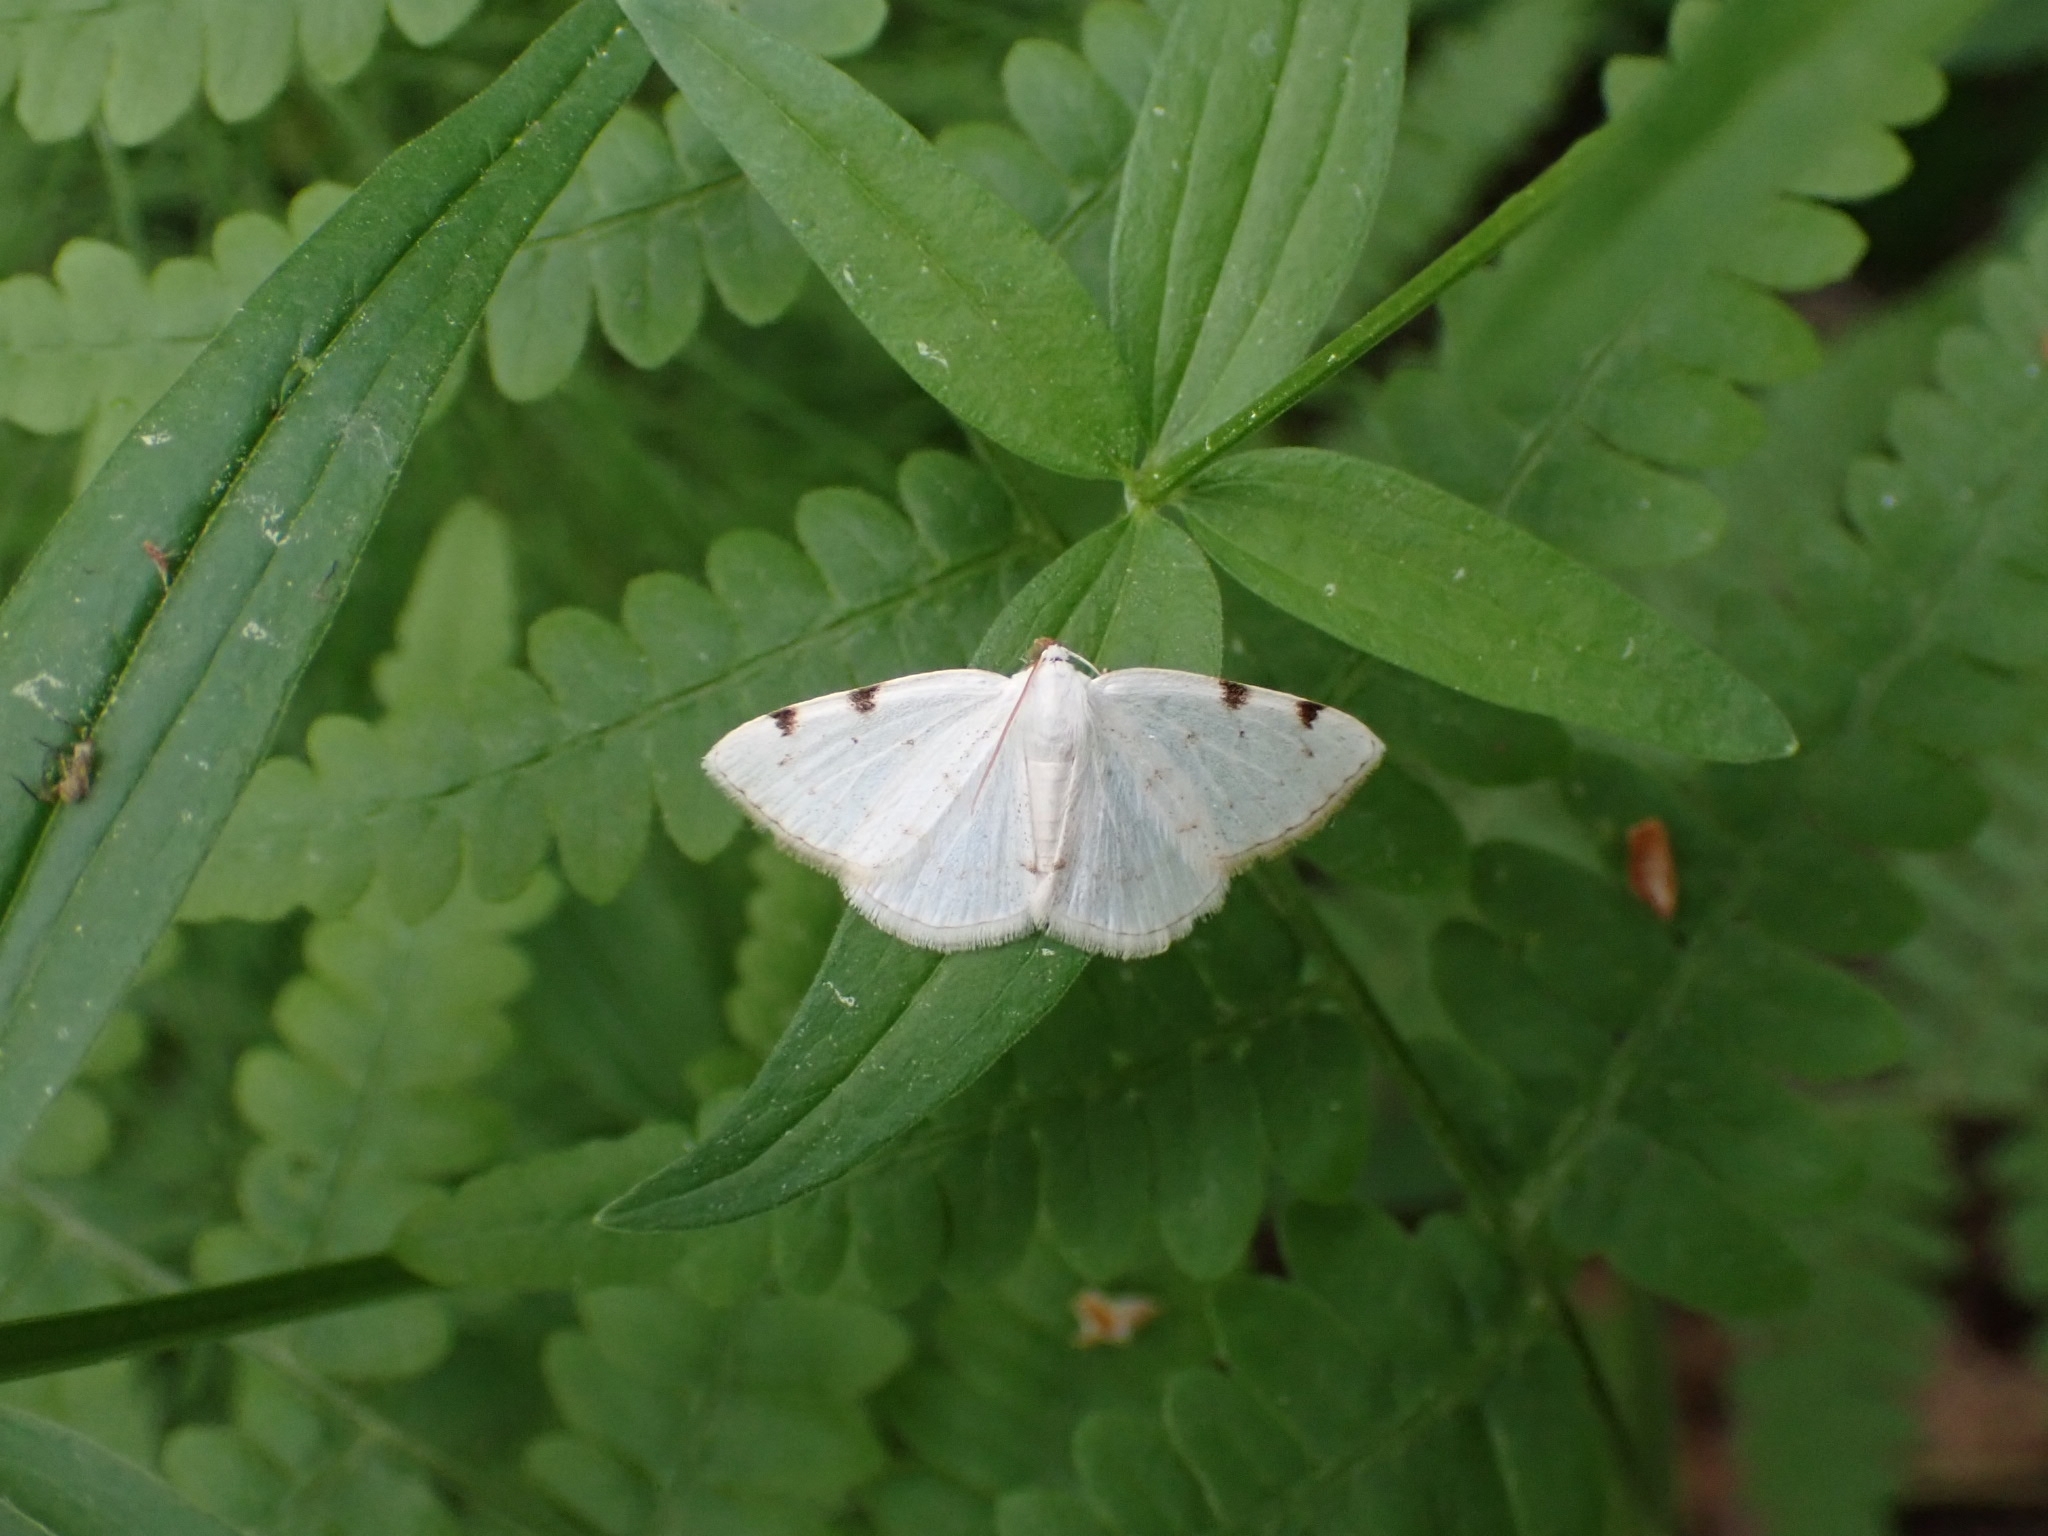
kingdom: Animalia
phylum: Arthropoda
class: Insecta
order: Lepidoptera
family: Geometridae
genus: Lomographa
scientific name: Lomographa bimaculata
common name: White-pinion spotted
